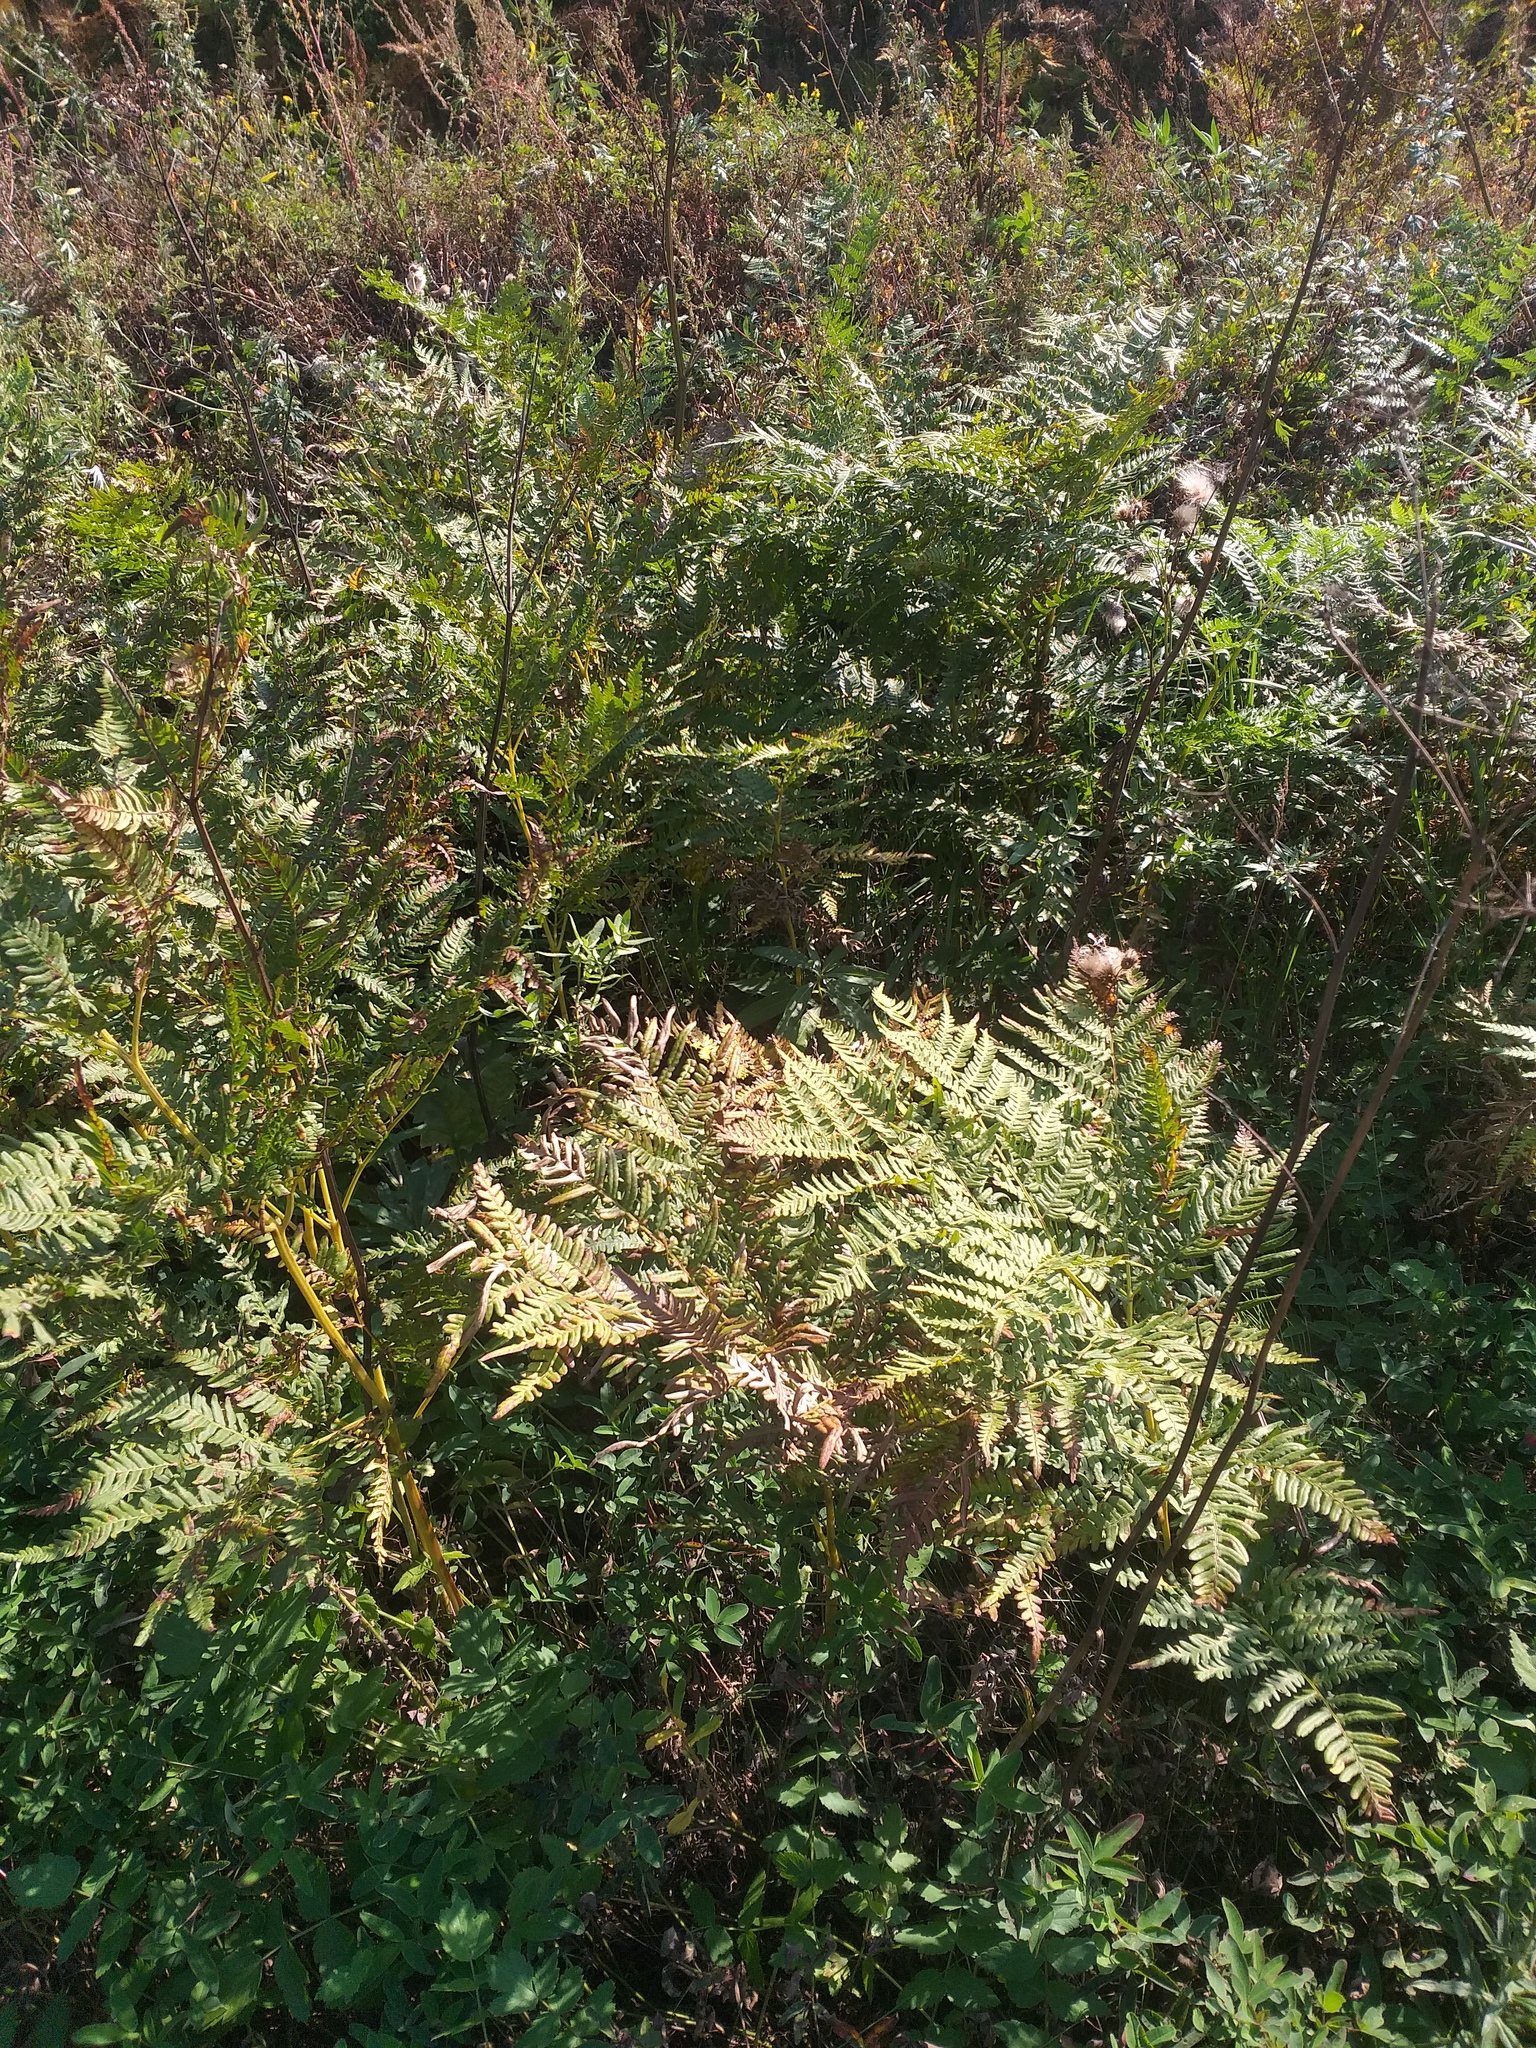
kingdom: Plantae
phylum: Tracheophyta
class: Polypodiopsida
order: Polypodiales
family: Dennstaedtiaceae
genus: Pteridium
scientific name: Pteridium aquilinum
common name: Bracken
